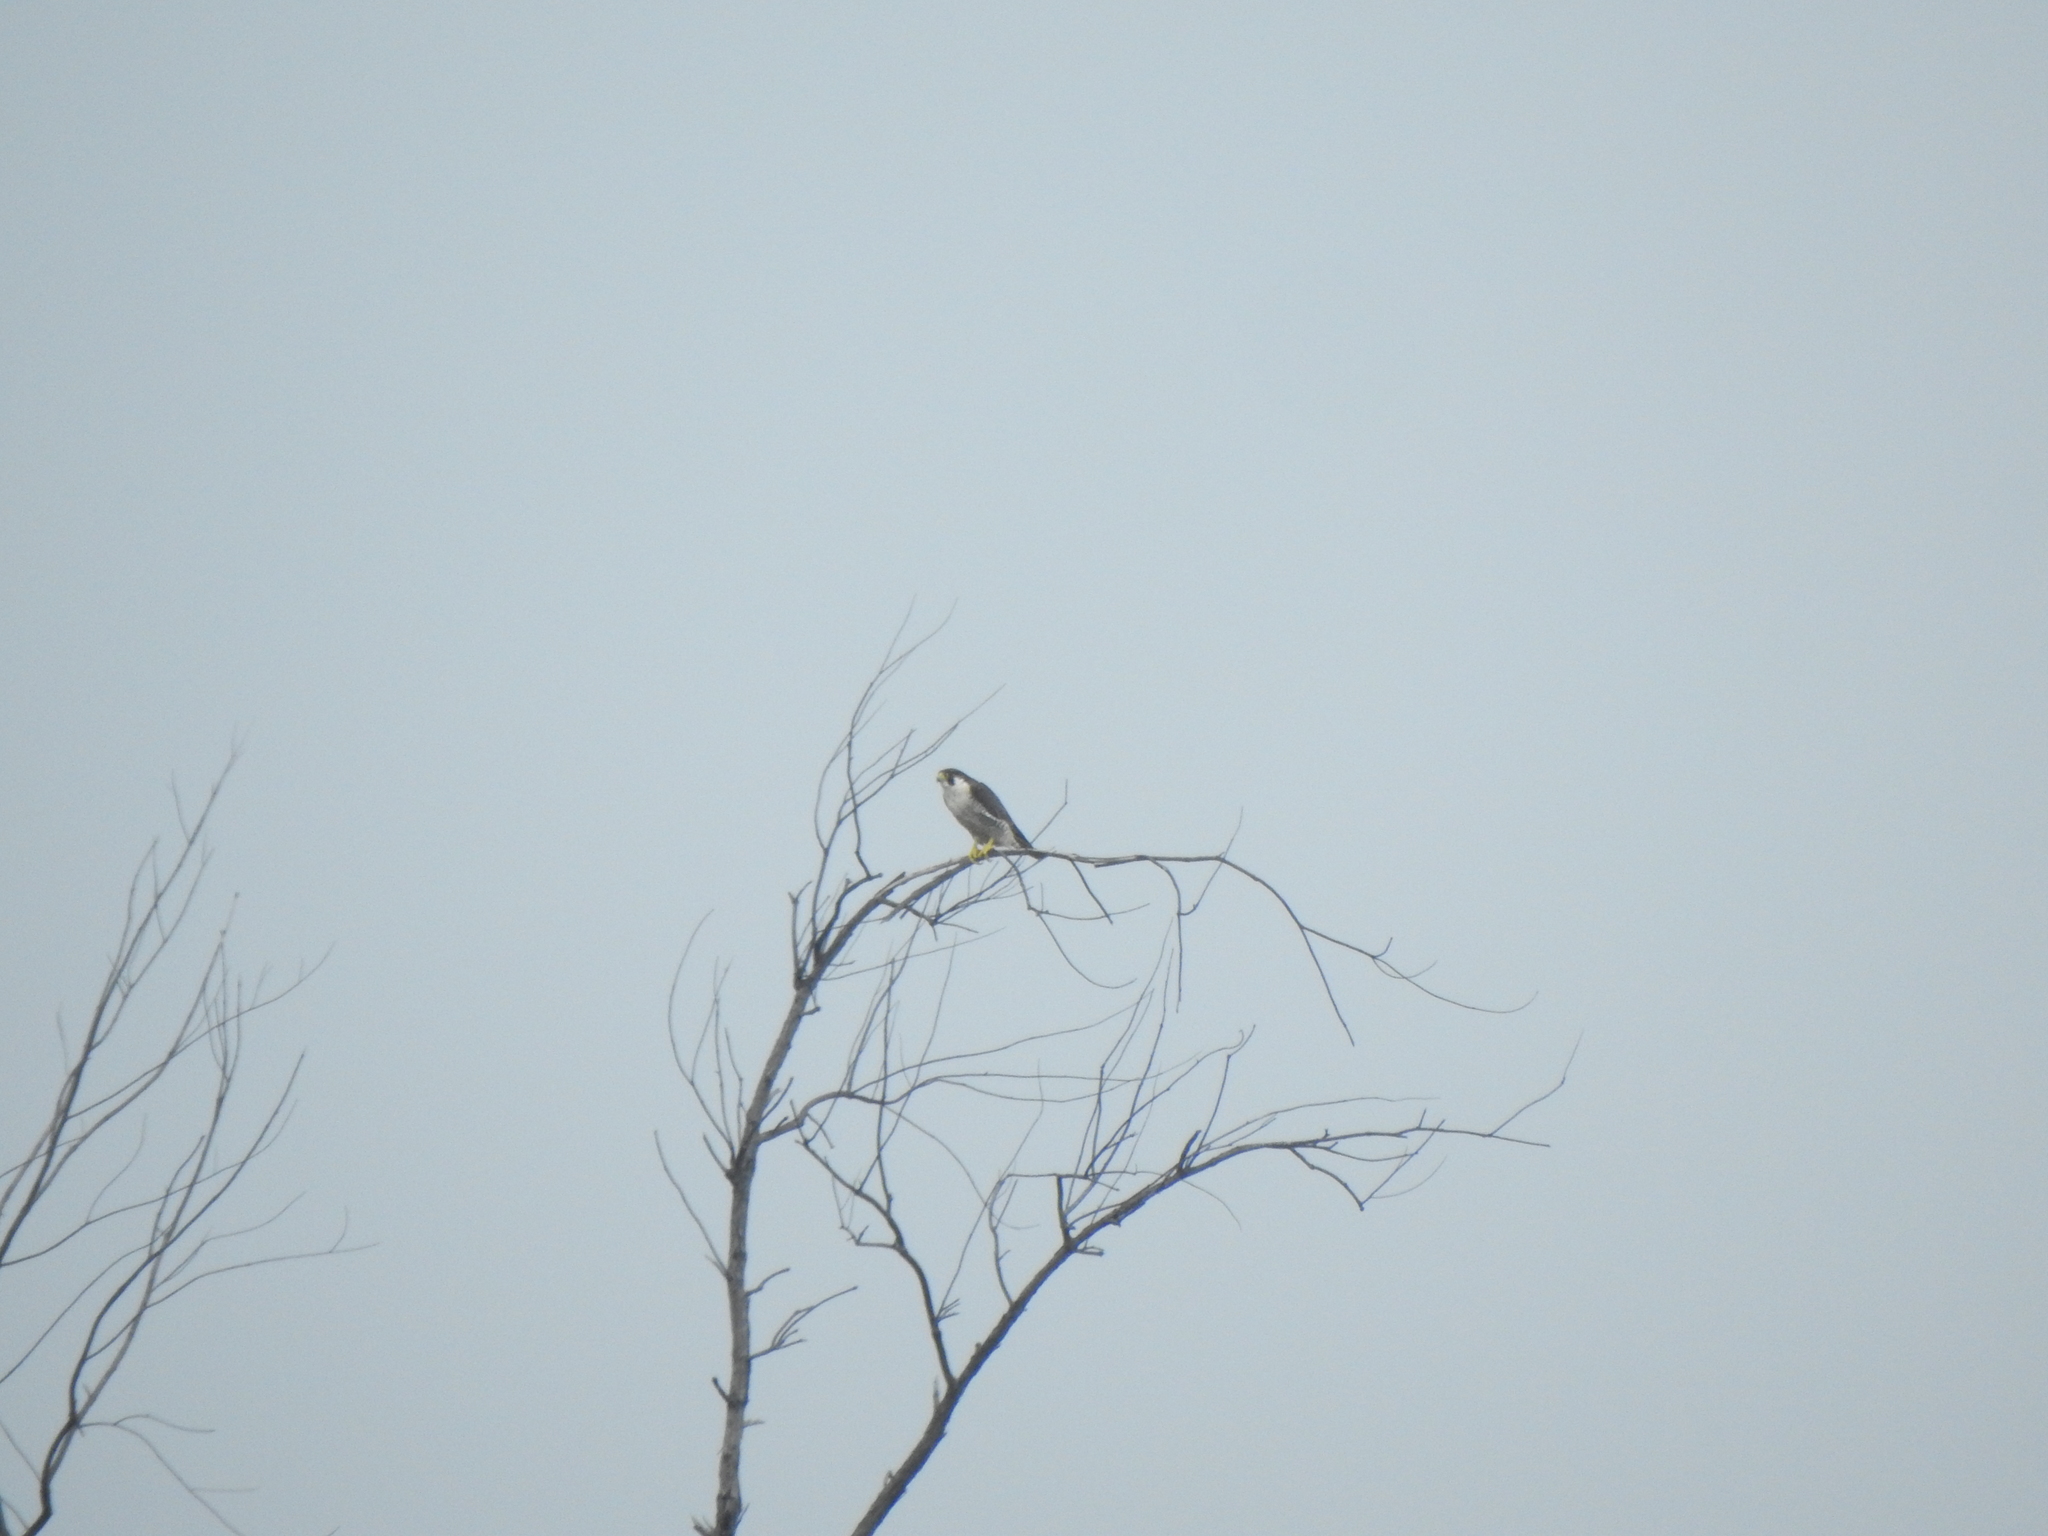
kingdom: Animalia
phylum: Chordata
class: Aves
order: Falconiformes
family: Falconidae
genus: Falco
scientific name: Falco peregrinus
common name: Peregrine falcon
